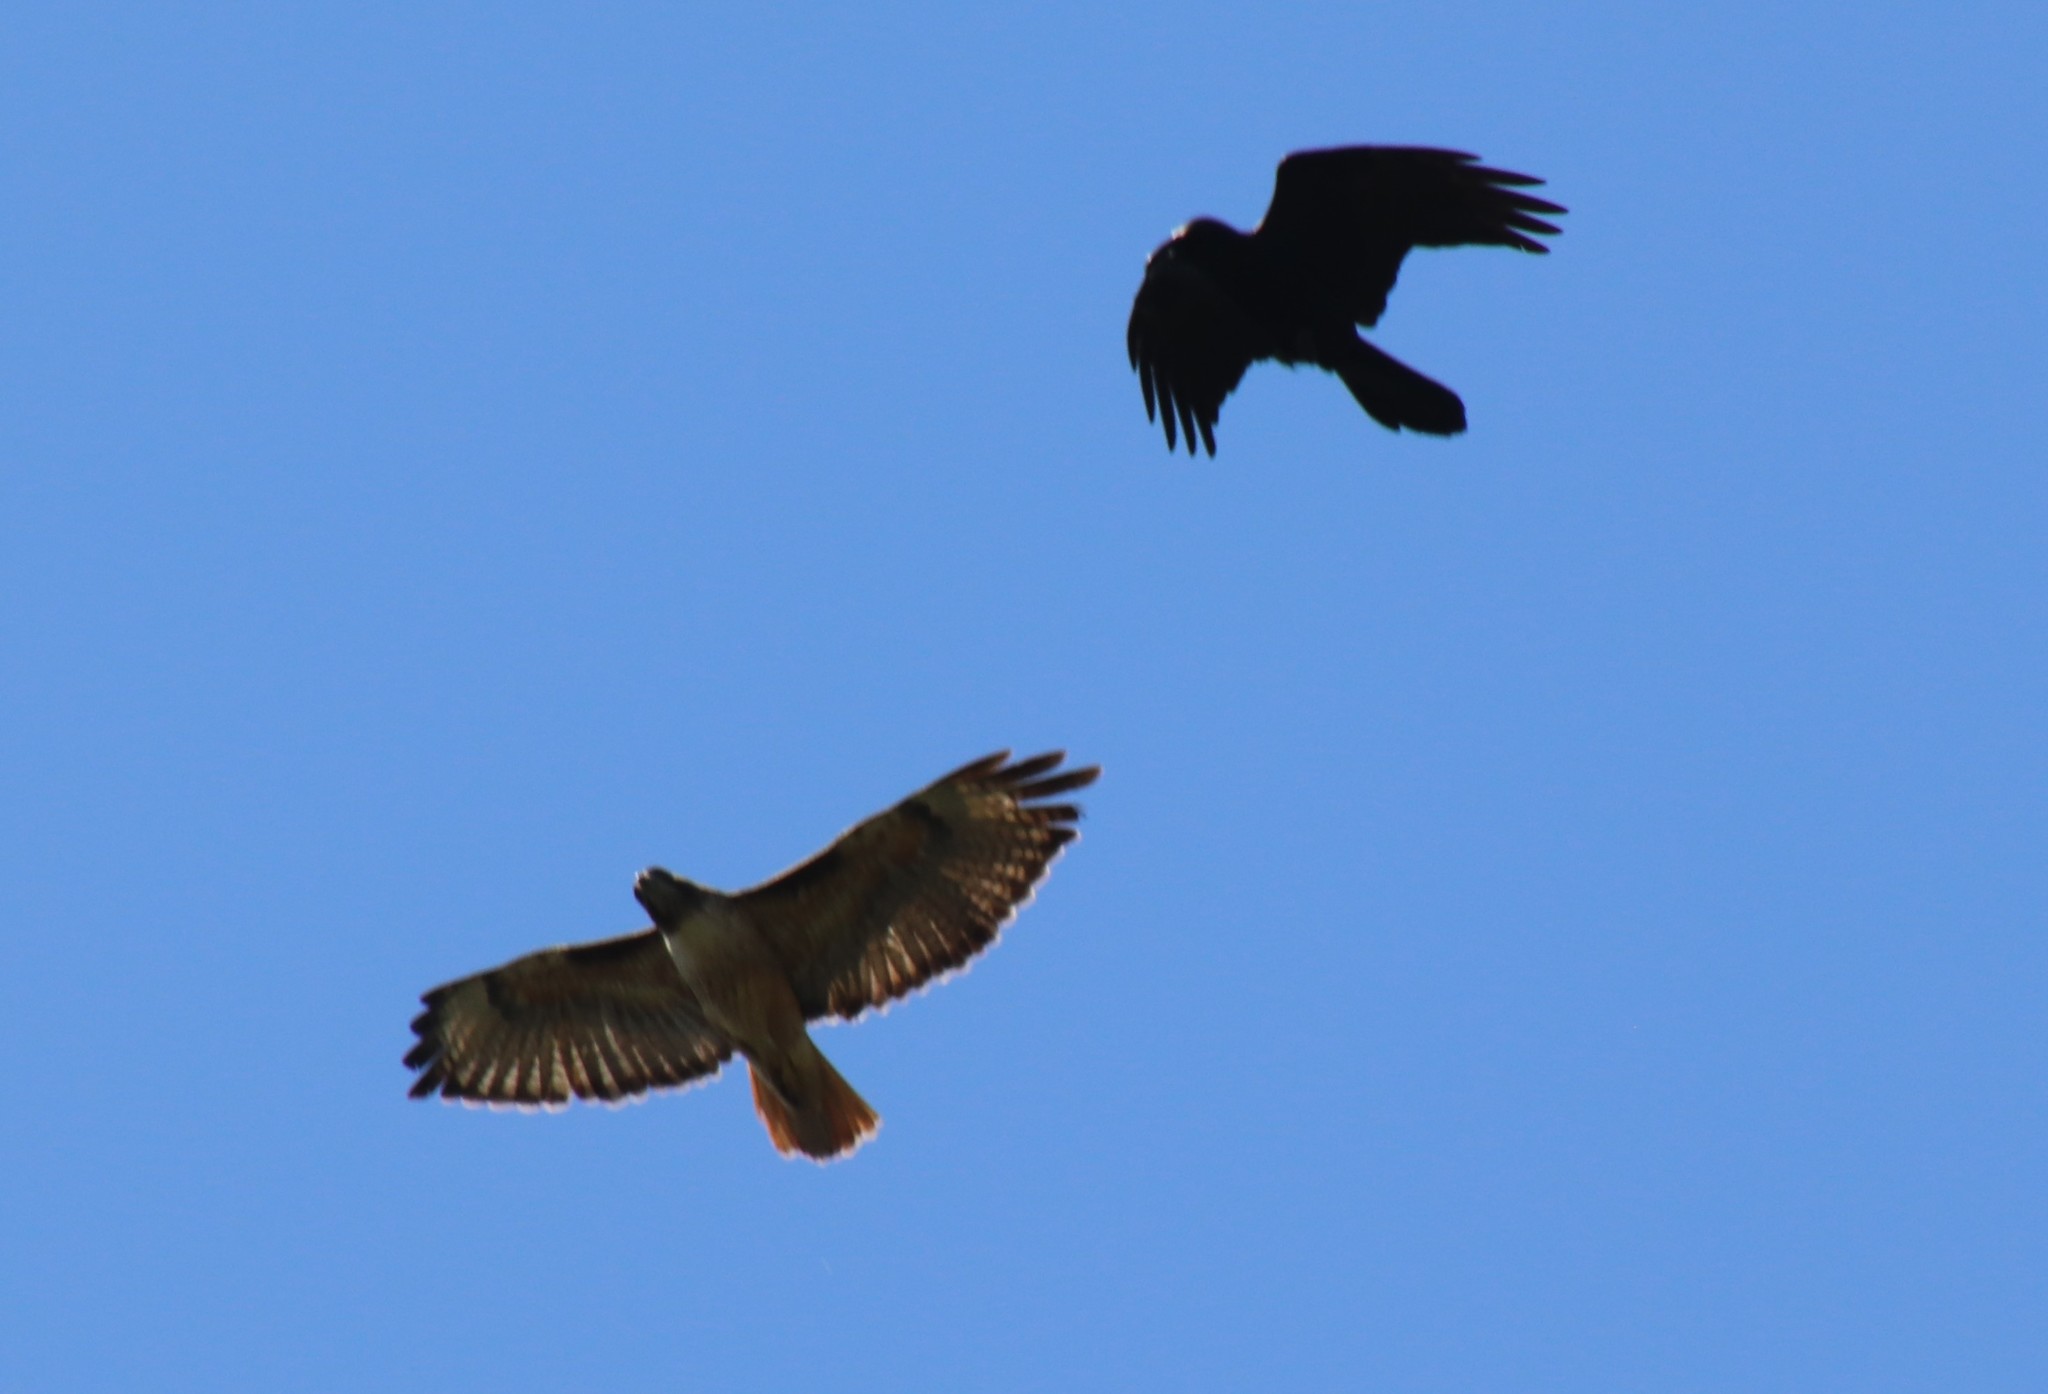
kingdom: Animalia
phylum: Chordata
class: Aves
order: Passeriformes
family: Corvidae
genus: Corvus
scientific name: Corvus corax
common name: Common raven
